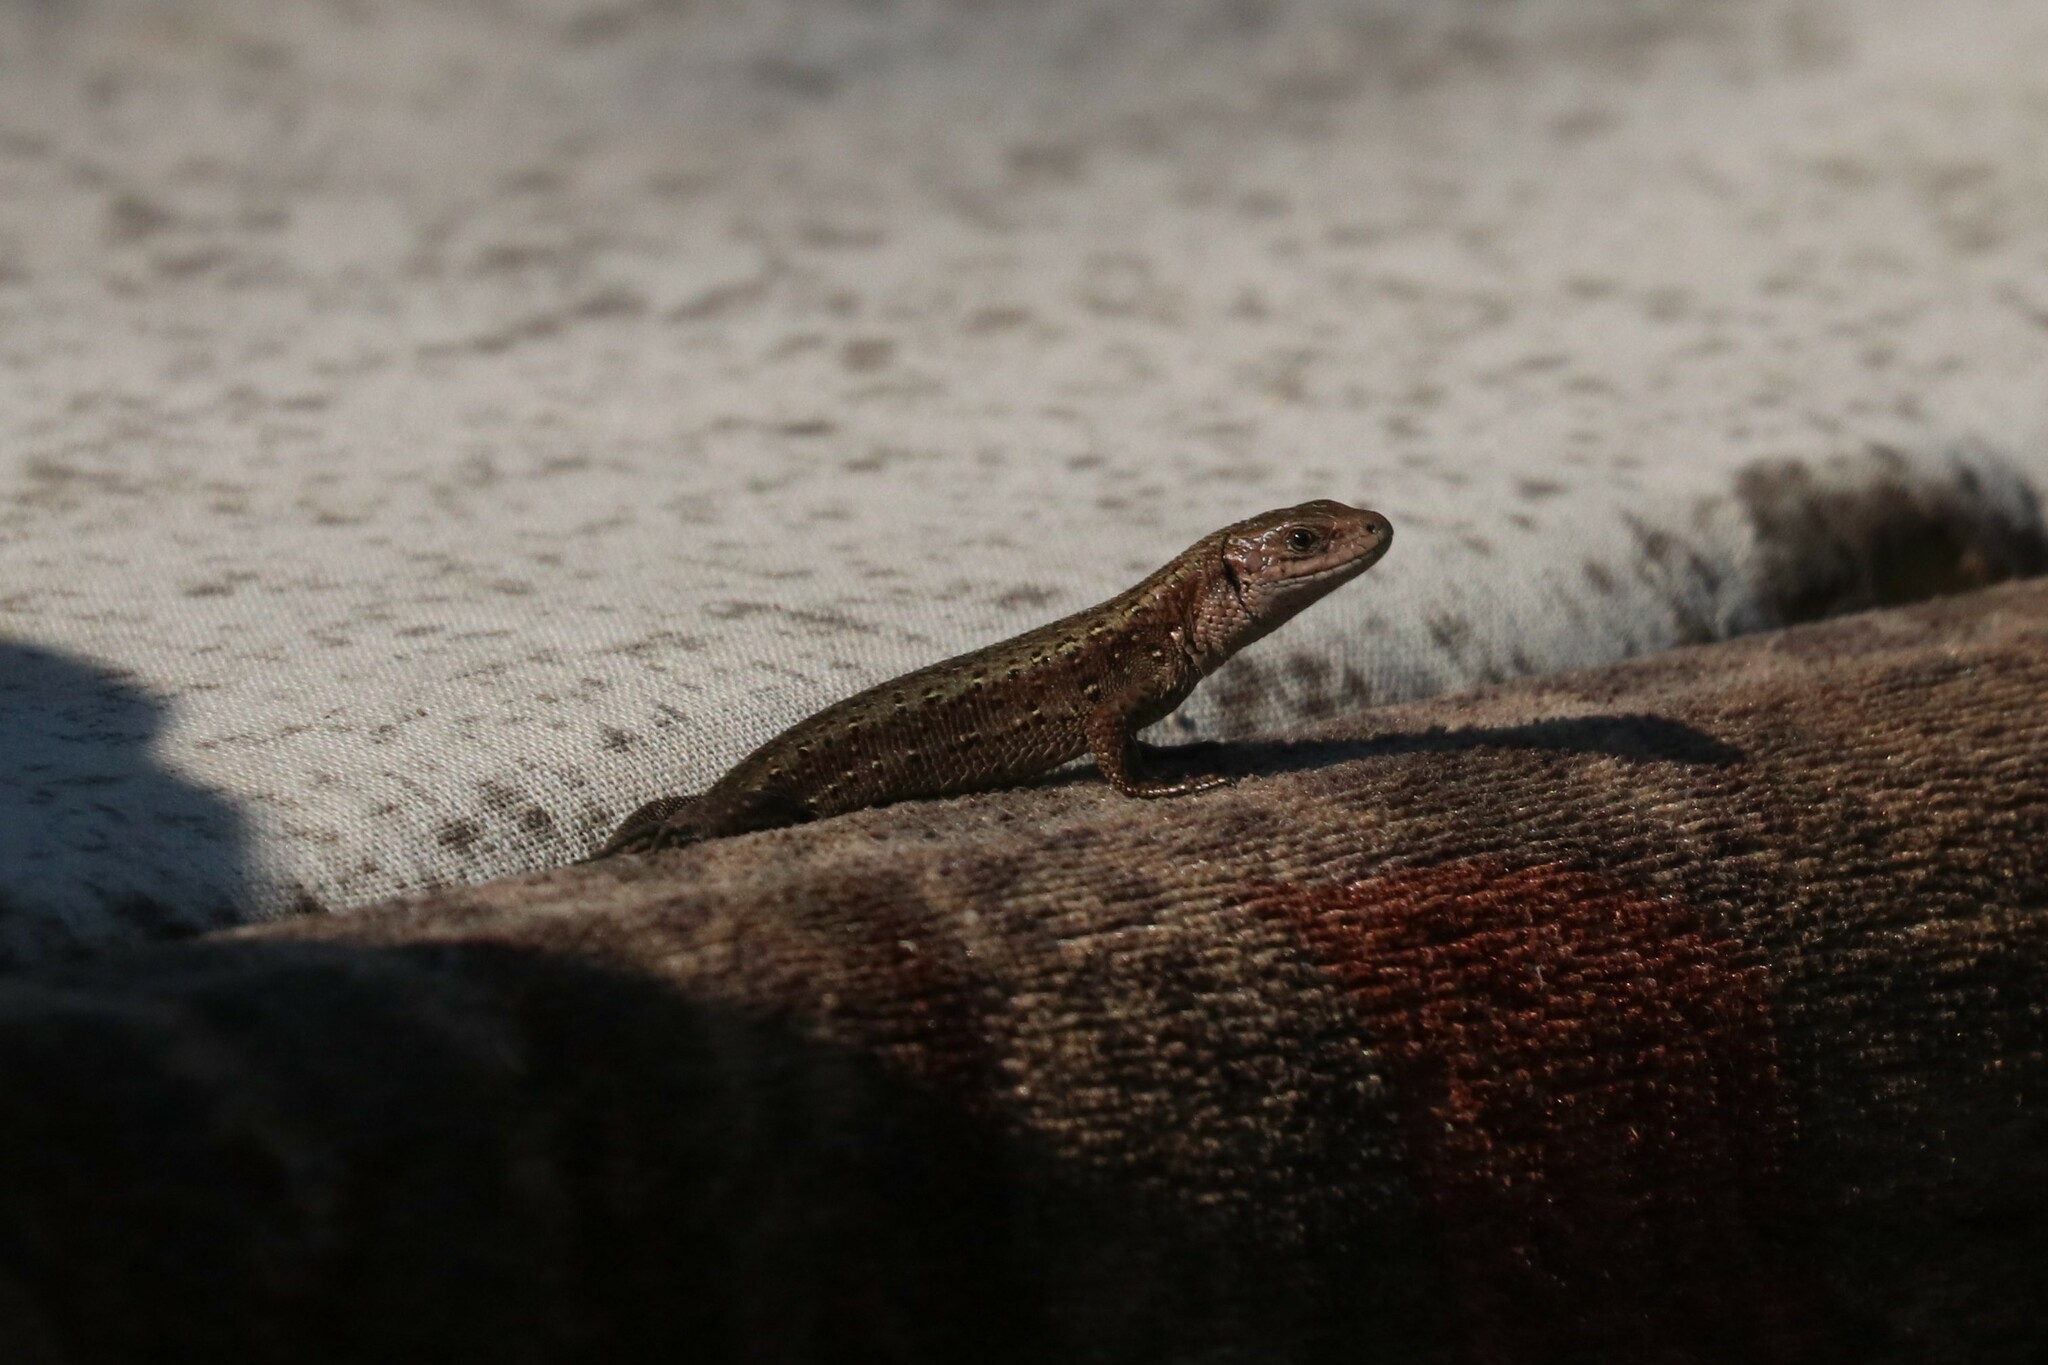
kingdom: Animalia
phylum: Chordata
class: Squamata
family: Lacertidae
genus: Zootoca
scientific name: Zootoca vivipara
